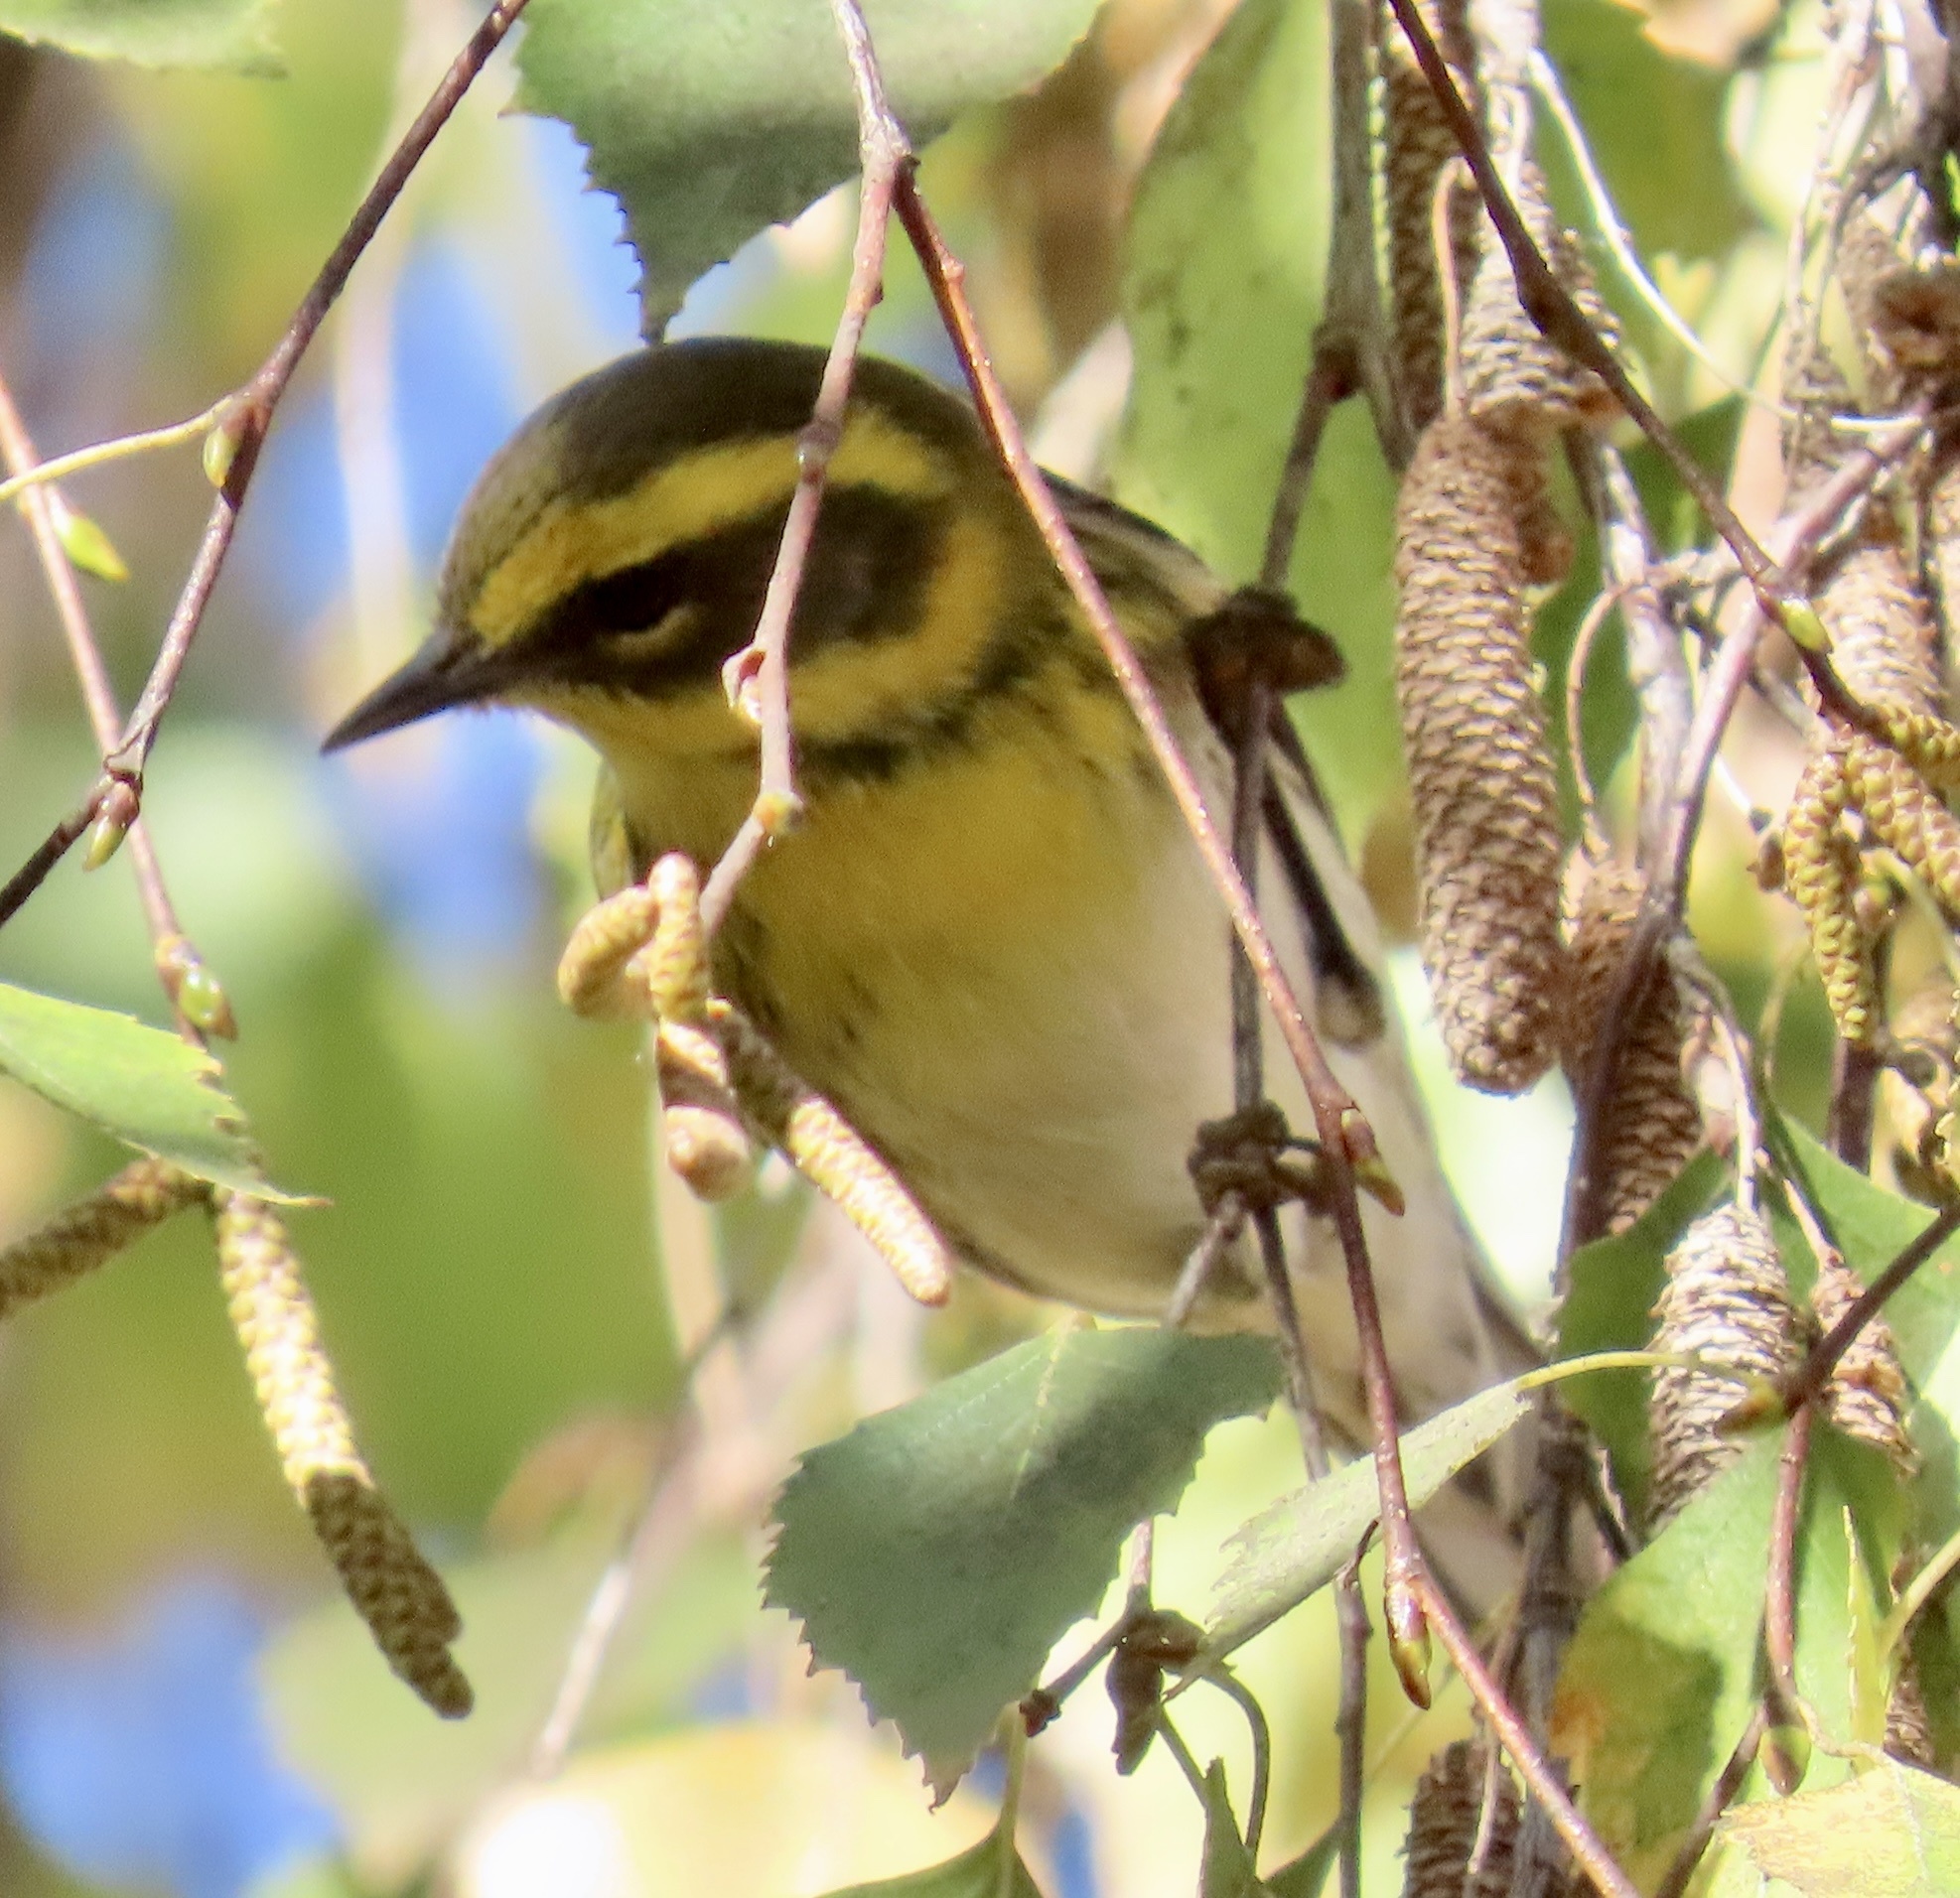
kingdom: Animalia
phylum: Chordata
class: Aves
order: Passeriformes
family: Parulidae
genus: Setophaga
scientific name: Setophaga townsendi
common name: Townsend's warbler
